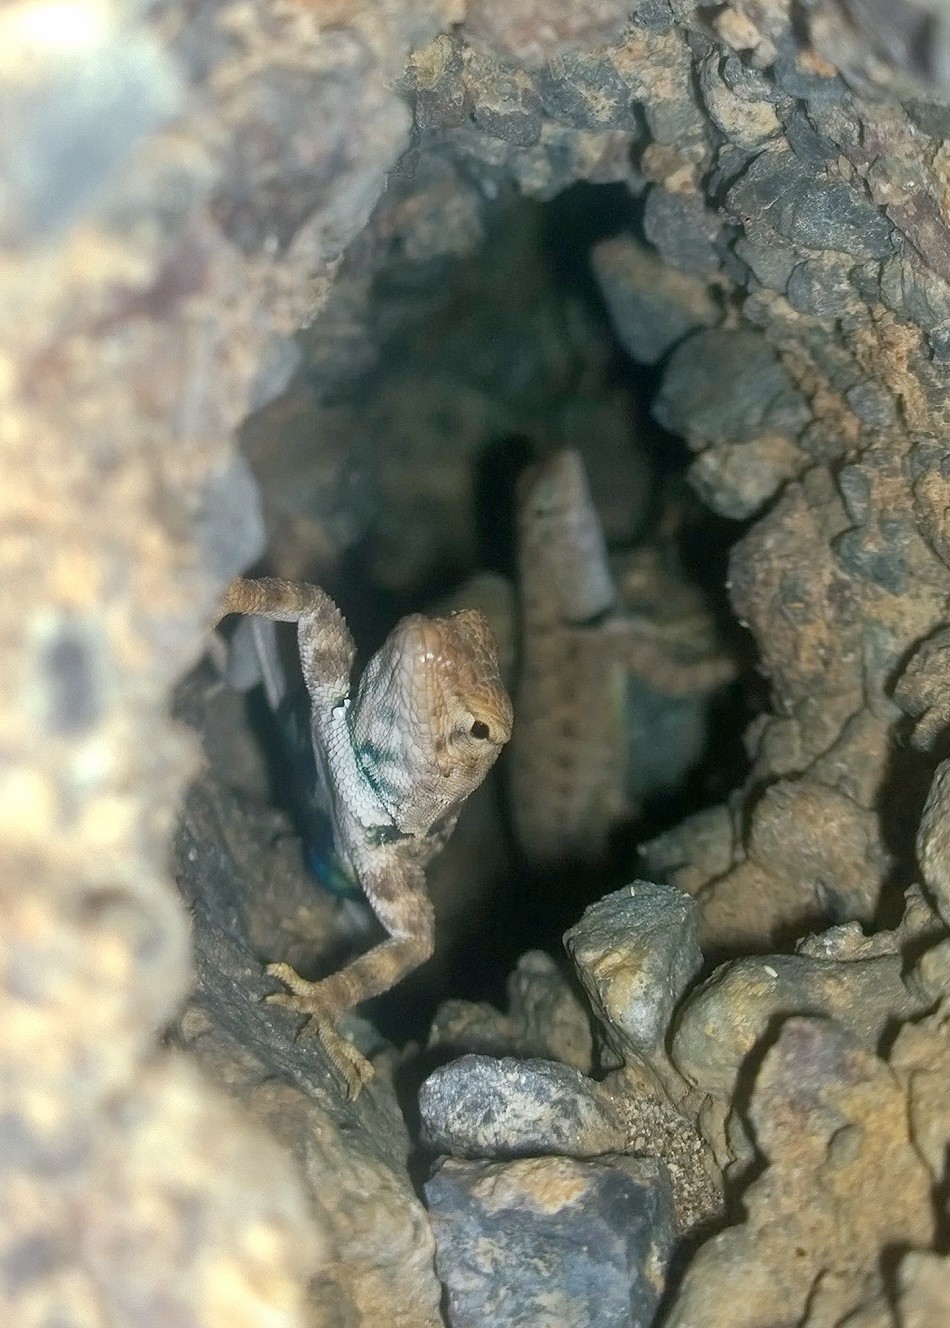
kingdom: Animalia
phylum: Chordata
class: Squamata
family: Phrynosomatidae
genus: Sceloporus
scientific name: Sceloporus merriami
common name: Canyon lizard
